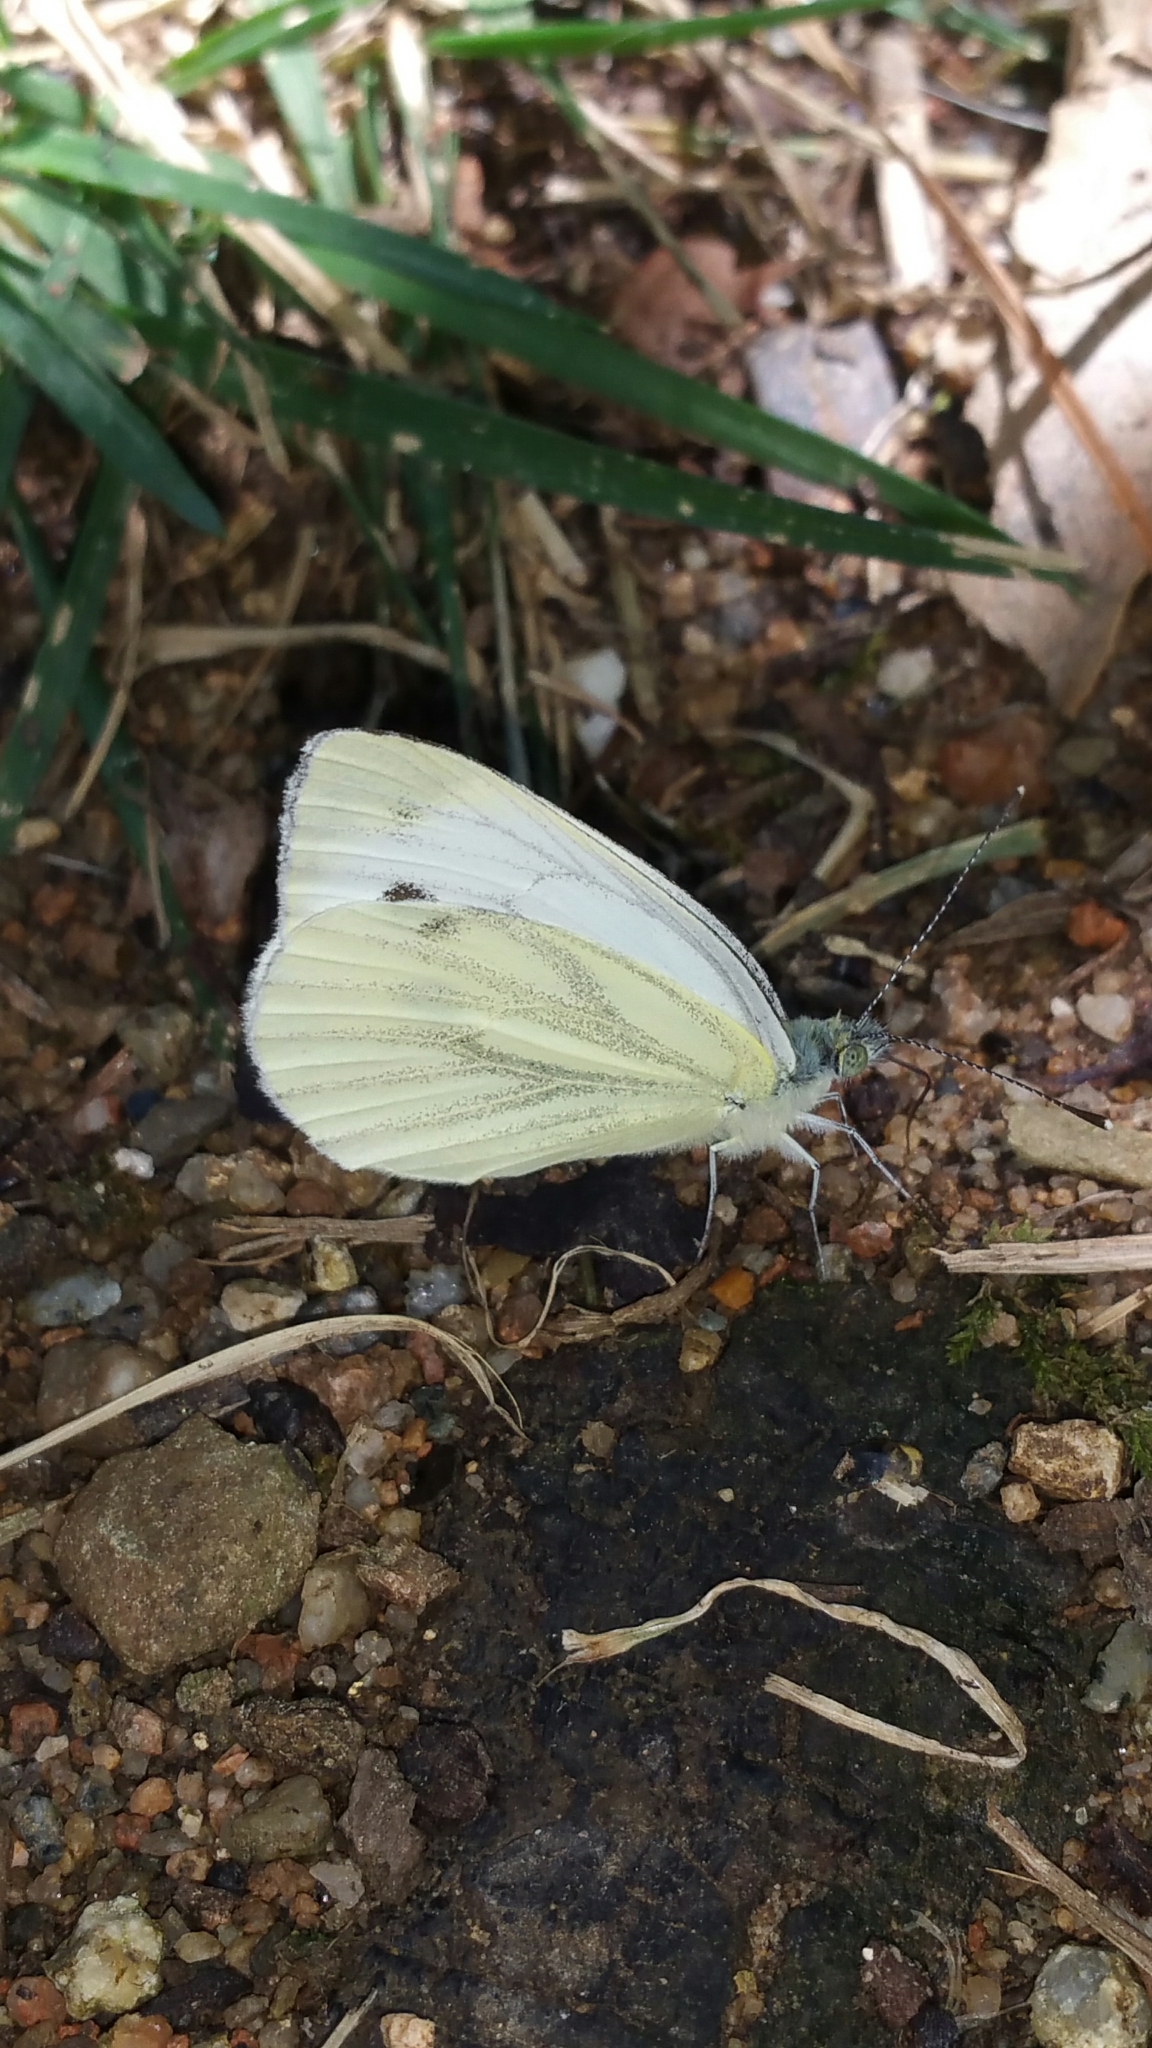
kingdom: Animalia
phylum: Arthropoda
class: Insecta
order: Lepidoptera
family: Pieridae
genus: Pieris
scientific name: Pieris napi
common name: Green-veined white
